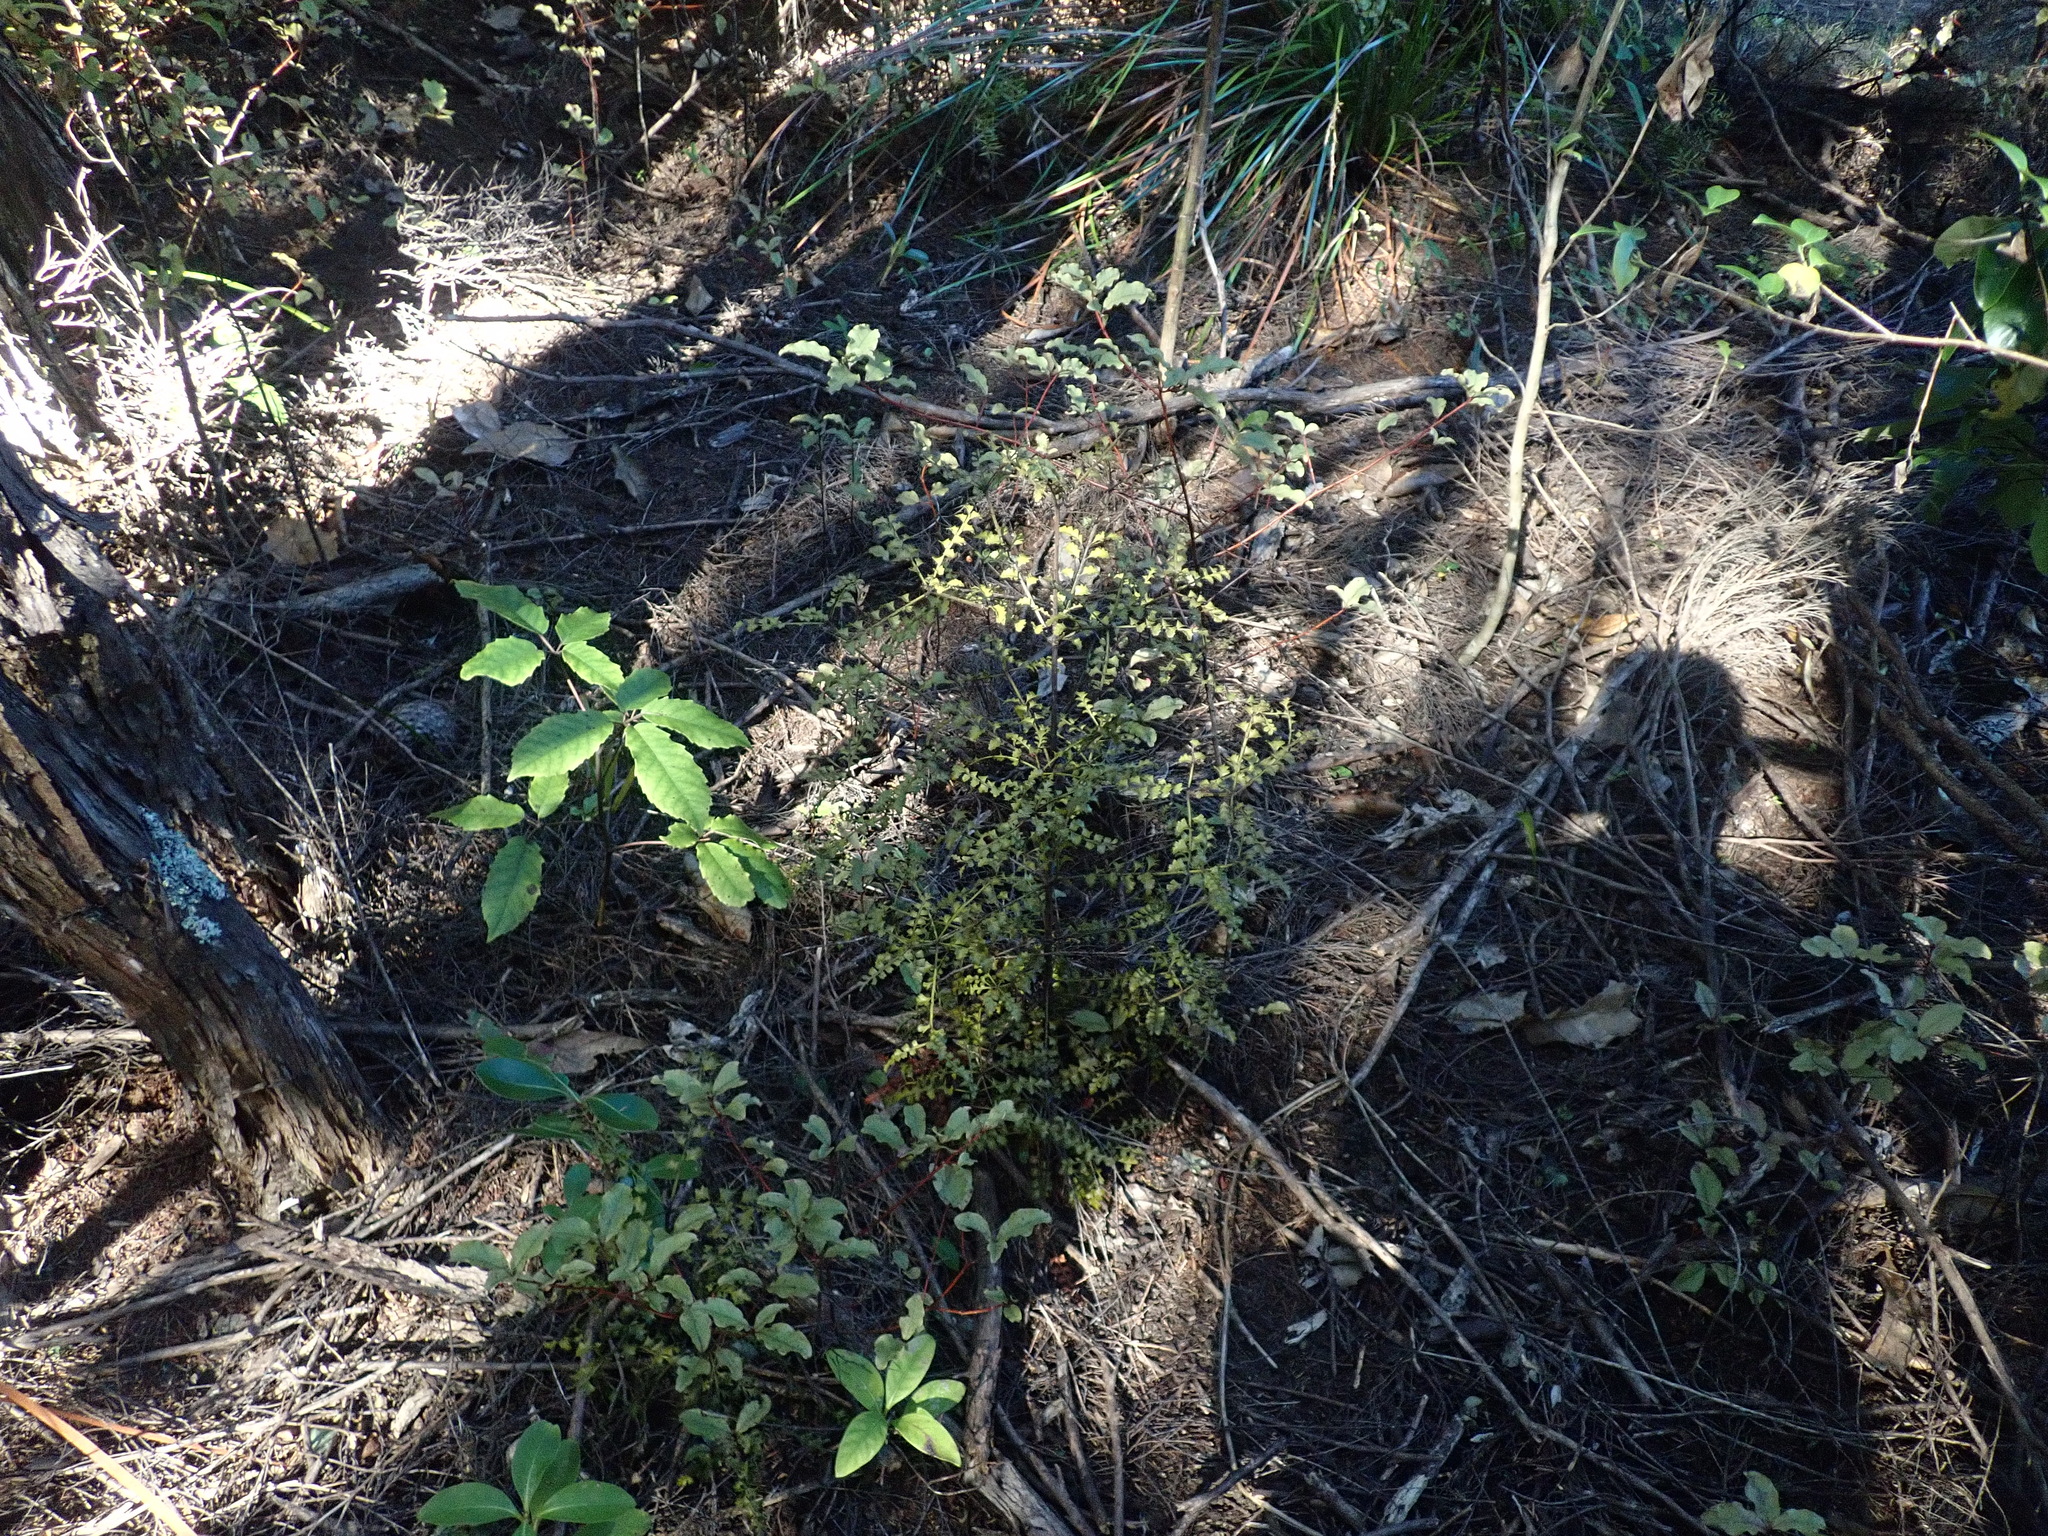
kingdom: Plantae
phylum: Tracheophyta
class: Pinopsida
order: Pinales
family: Phyllocladaceae
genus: Phyllocladus
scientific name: Phyllocladus trichomanoides
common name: Celery pine
